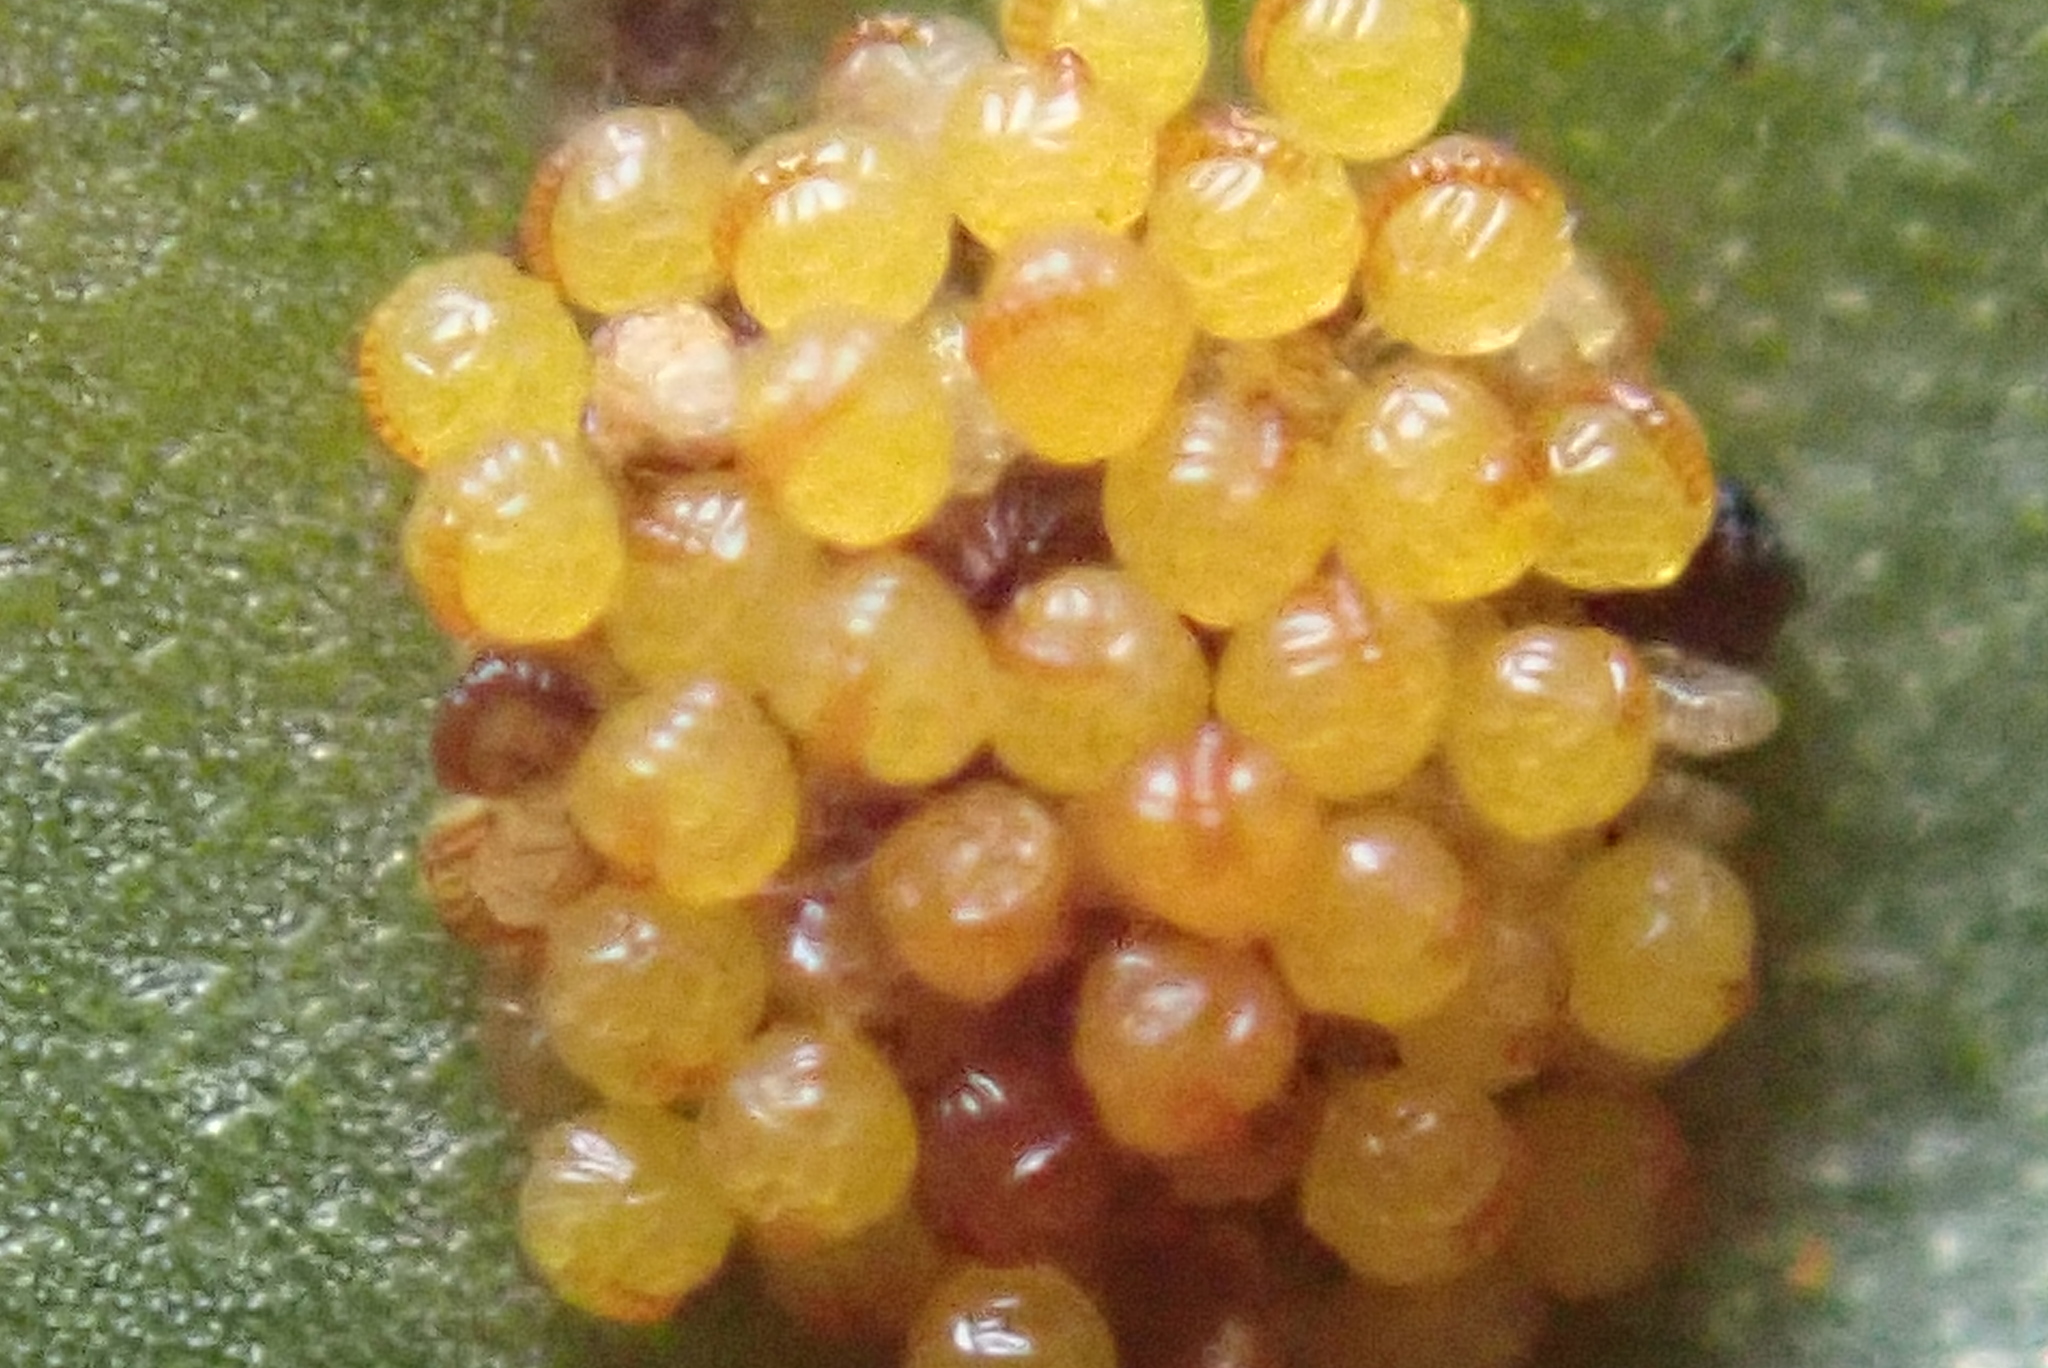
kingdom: Plantae
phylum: Tracheophyta
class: Polypodiopsida
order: Polypodiales
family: Polypodiaceae
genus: Polypodium
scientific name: Polypodium vulgare
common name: Common polypody
